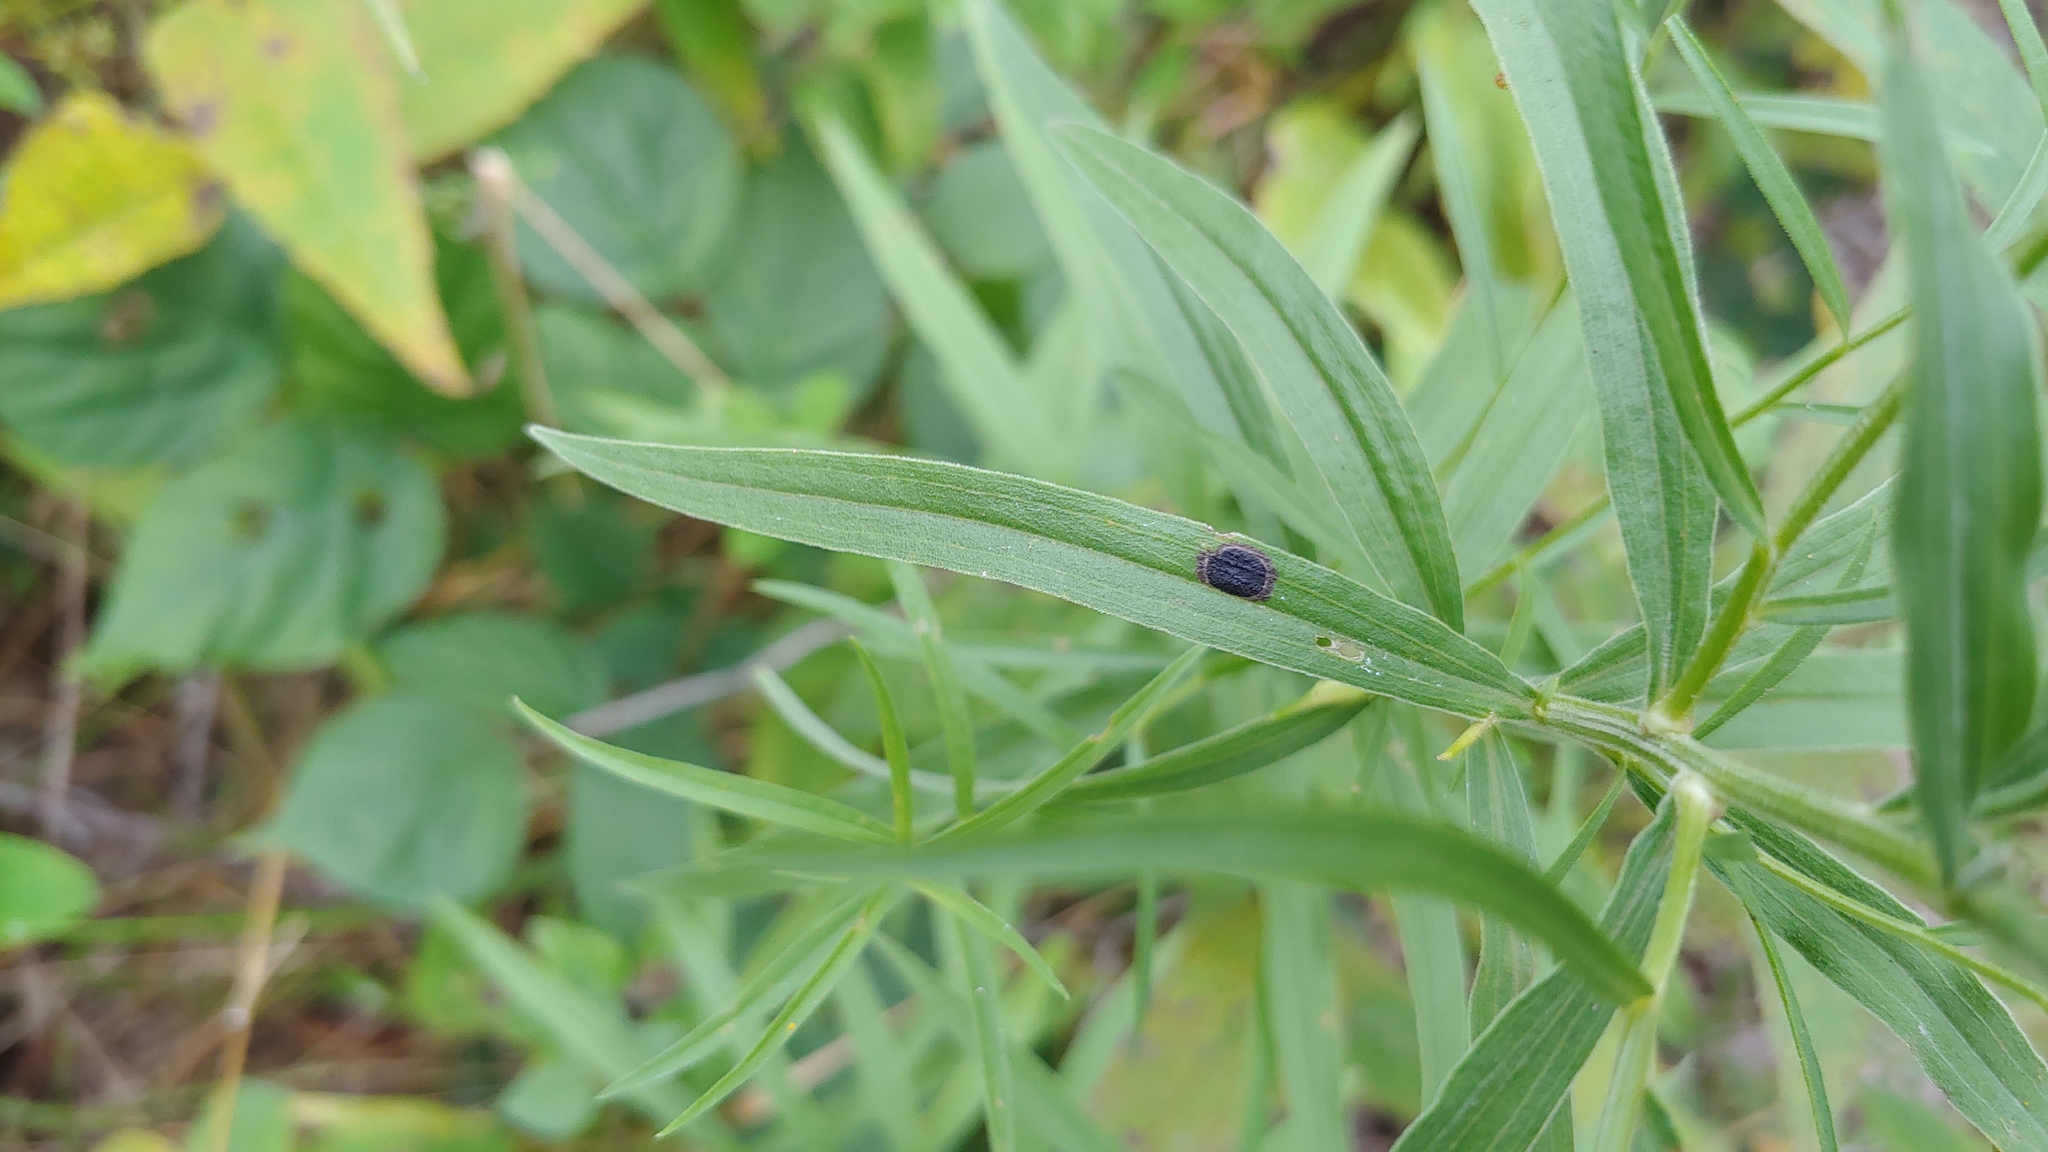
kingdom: Animalia
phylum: Arthropoda
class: Insecta
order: Diptera
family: Cecidomyiidae
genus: Asteromyia
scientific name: Asteromyia euthamiae
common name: Euthamia leaf gall midge
